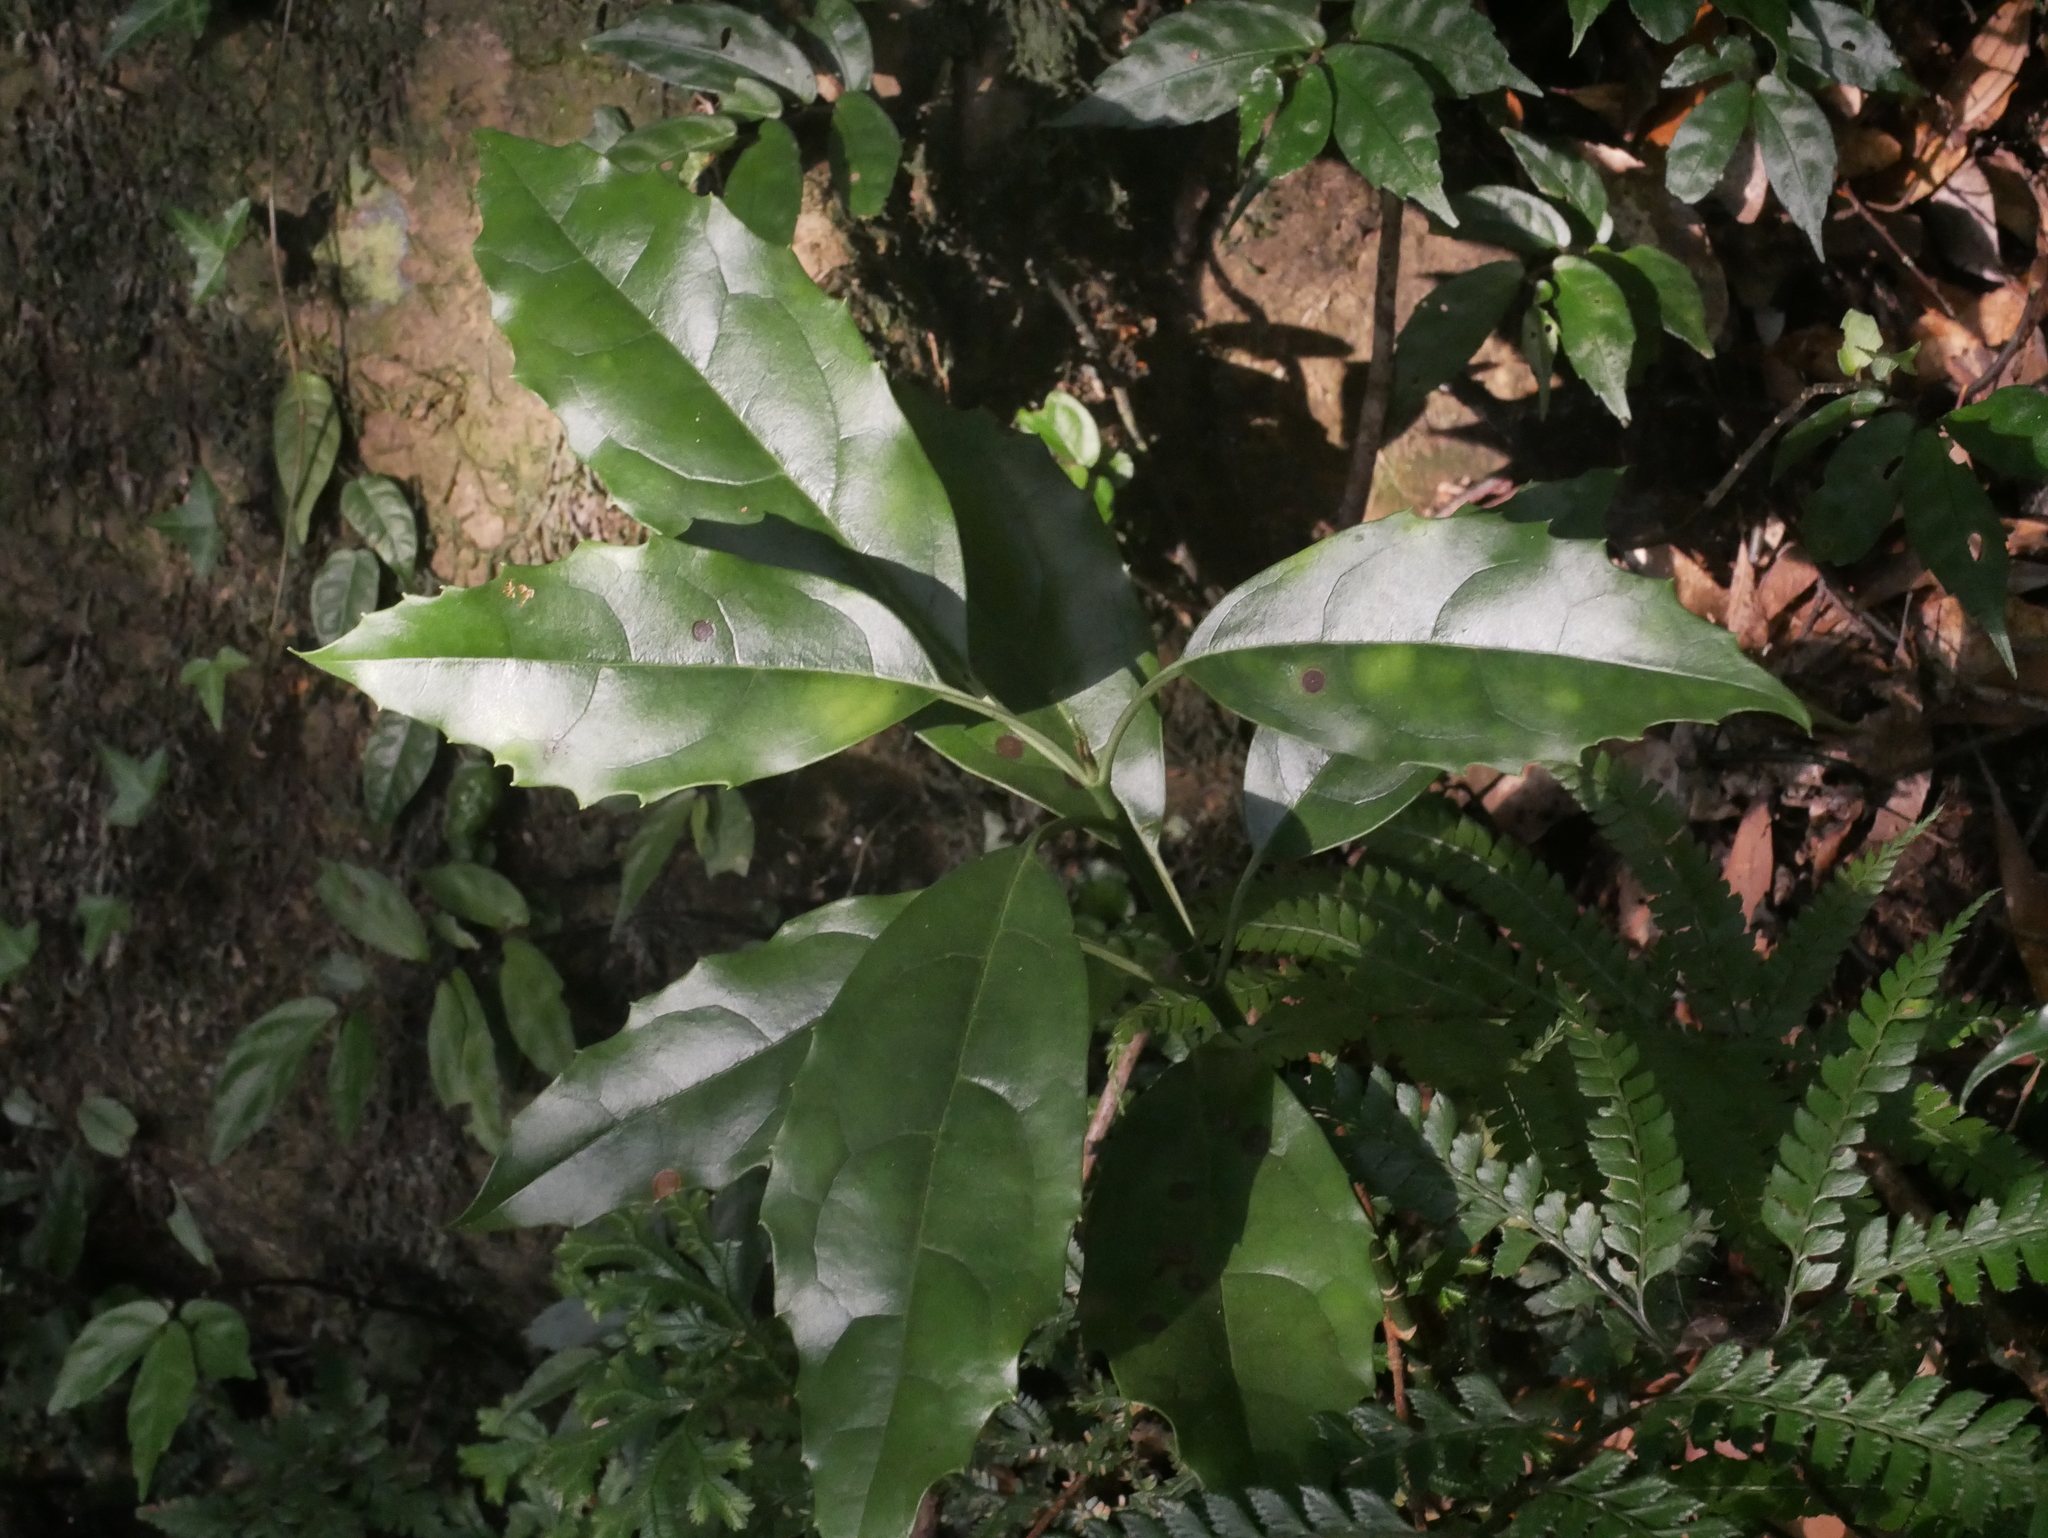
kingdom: Plantae
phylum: Tracheophyta
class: Magnoliopsida
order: Garryales
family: Garryaceae
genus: Aucuba
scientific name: Aucuba japonica
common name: Spotted-laurel
